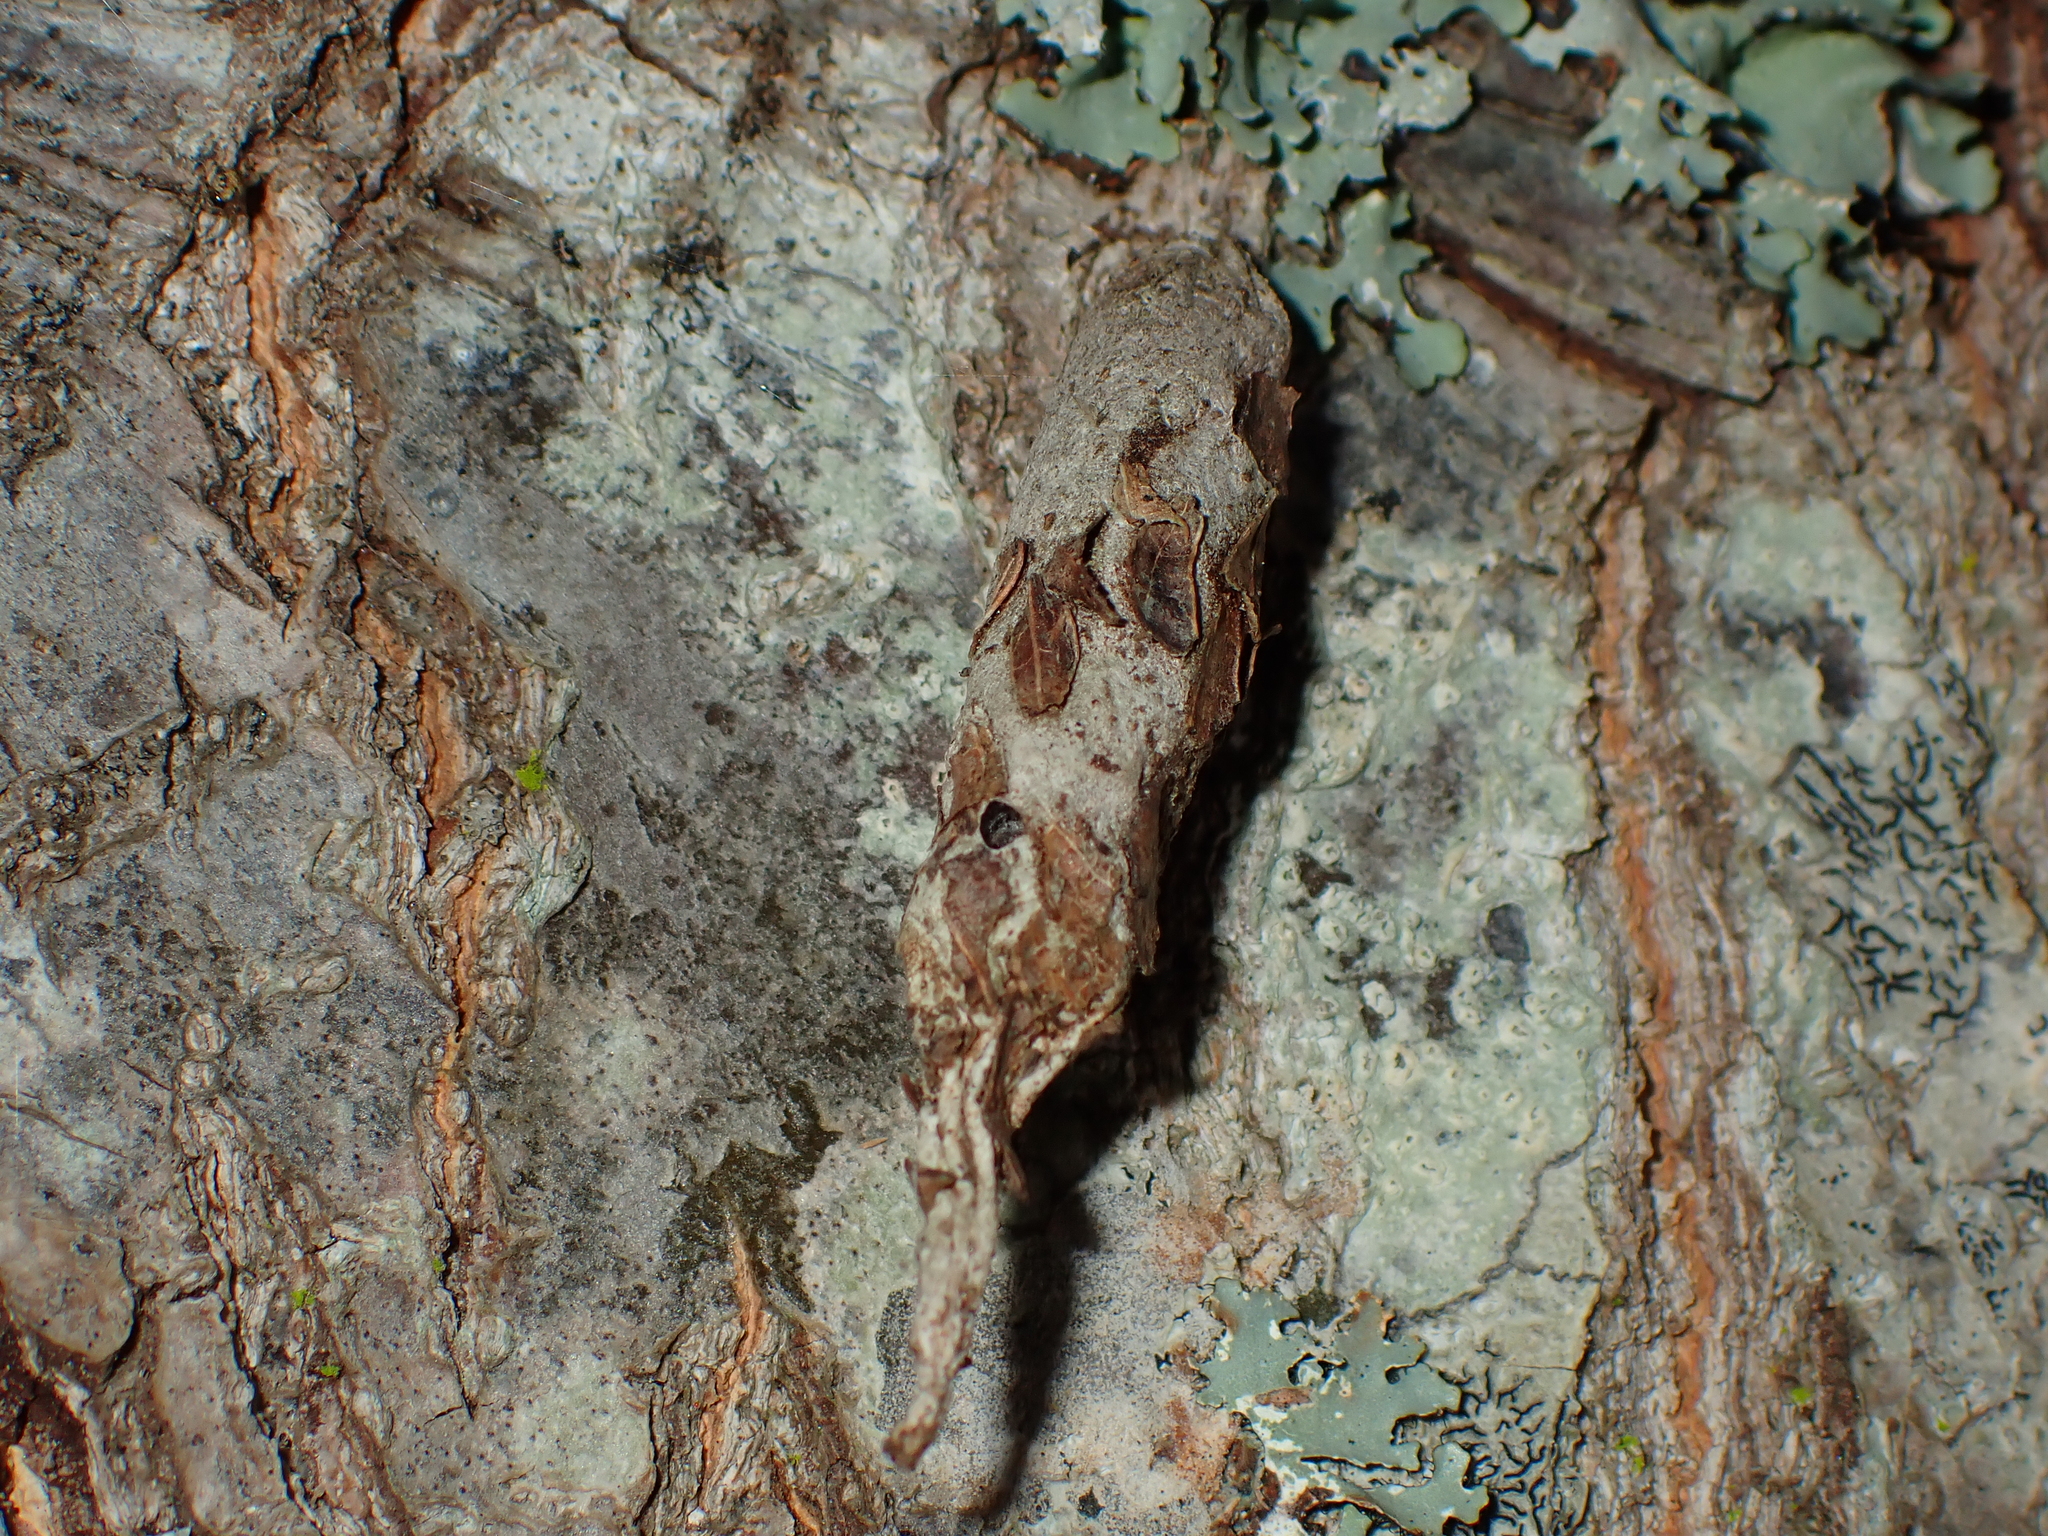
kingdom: Animalia
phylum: Arthropoda
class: Insecta
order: Lepidoptera
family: Psychidae
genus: Liothula
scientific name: Liothula omnivora
